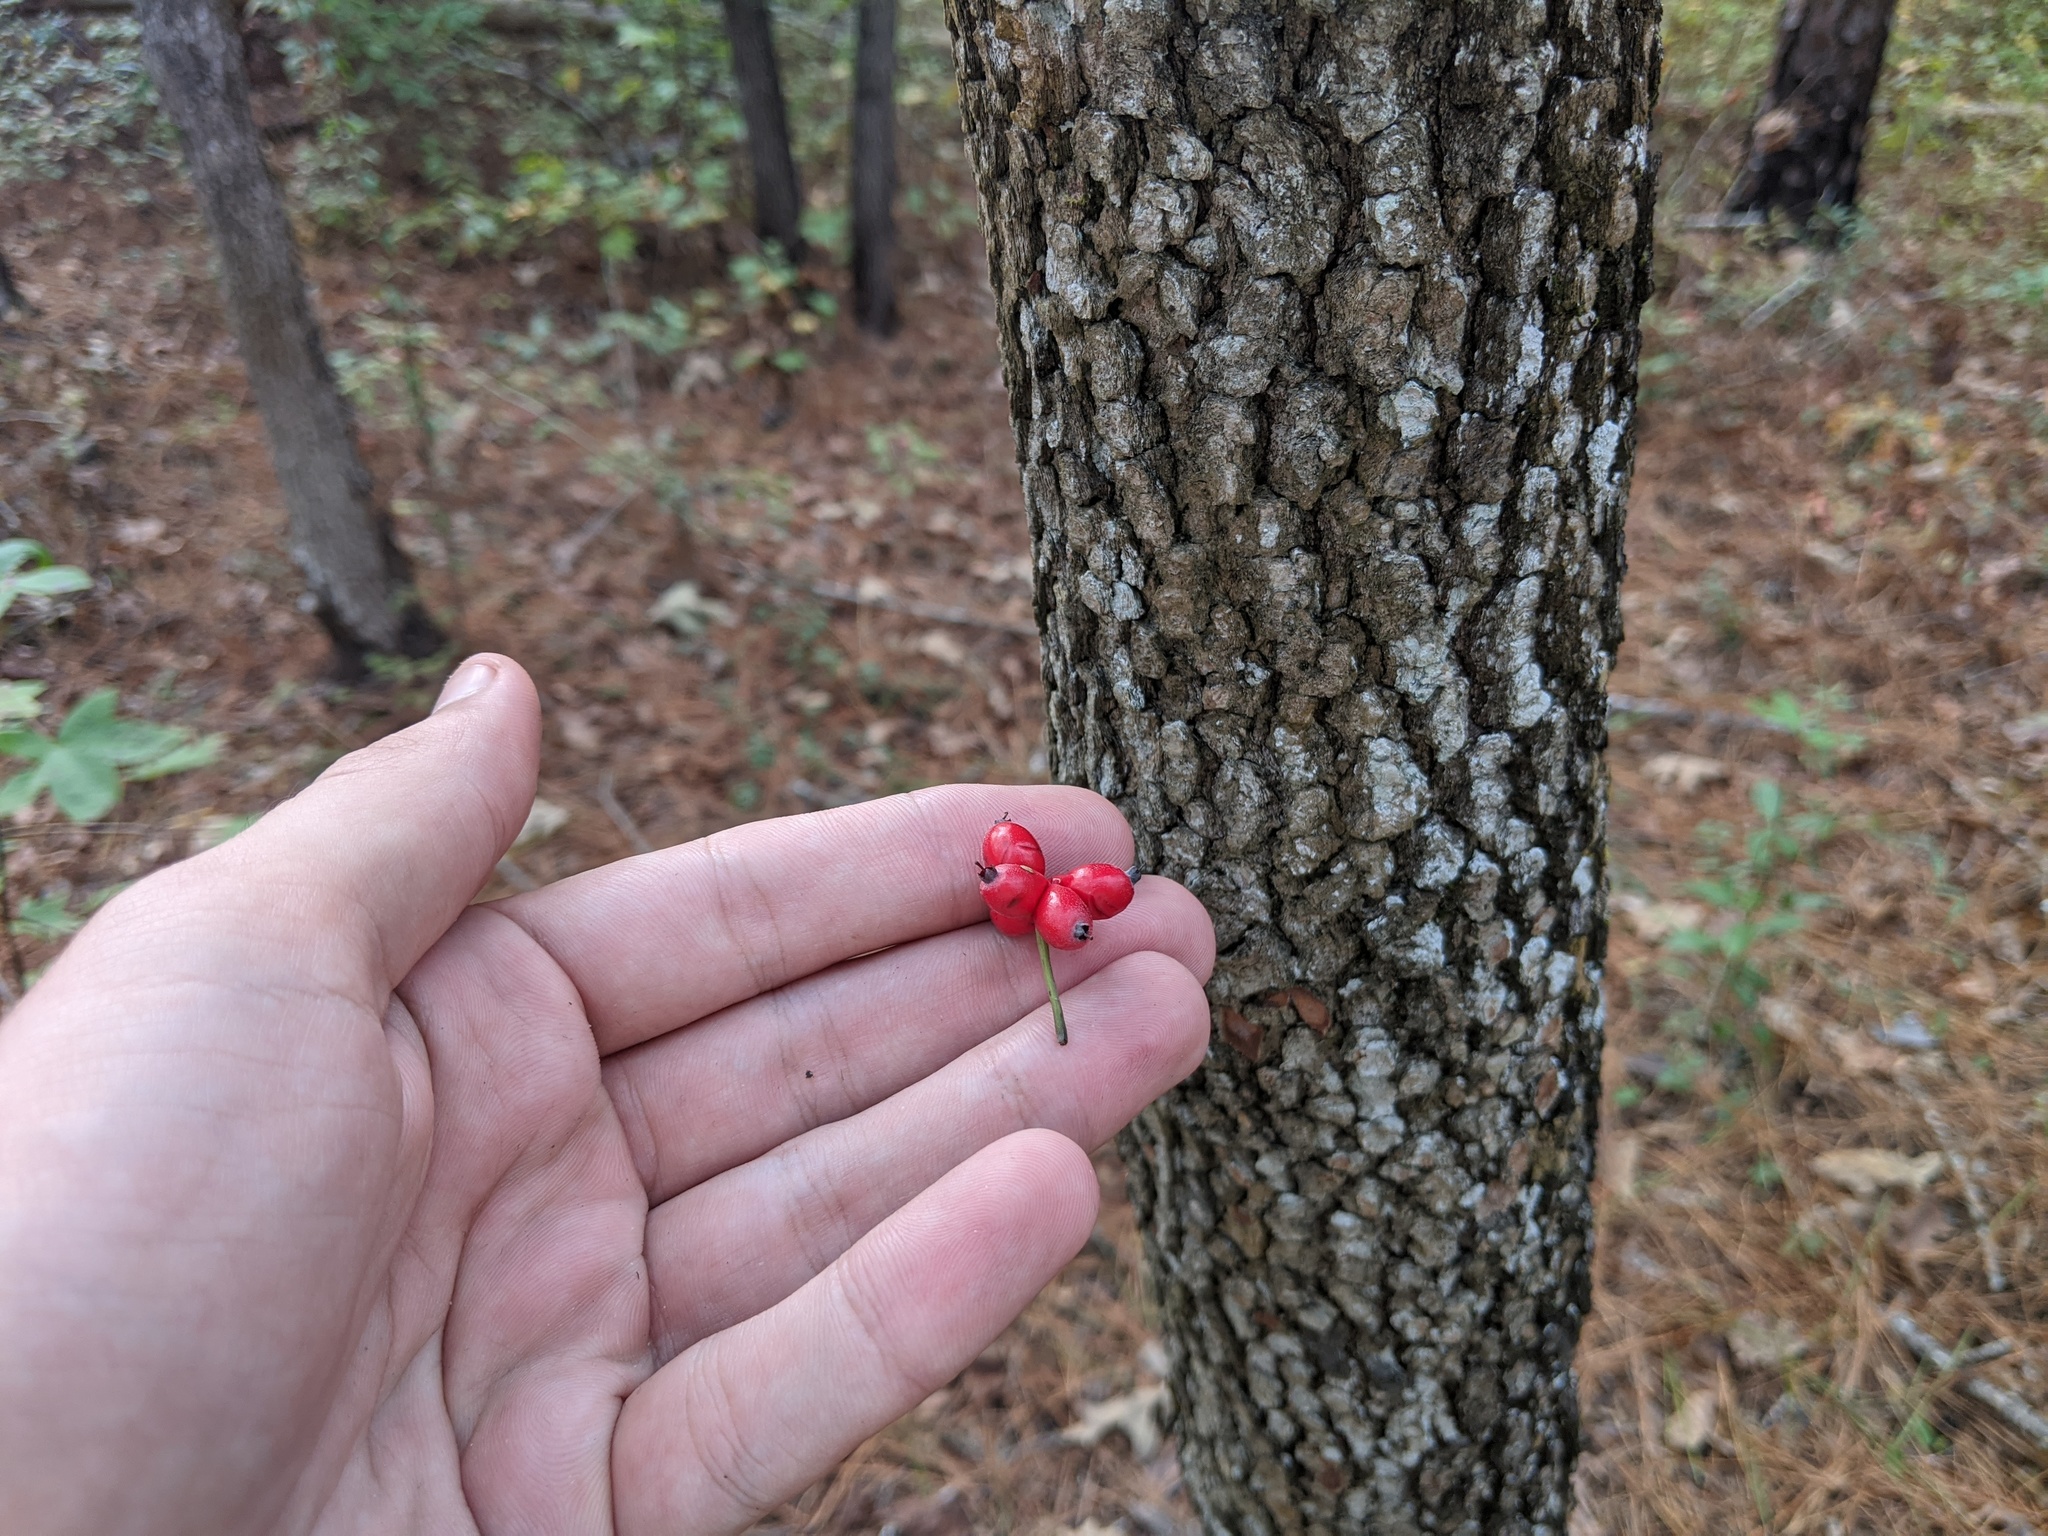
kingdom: Plantae
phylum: Tracheophyta
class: Magnoliopsida
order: Cornales
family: Cornaceae
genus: Cornus
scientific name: Cornus florida
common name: Flowering dogwood
